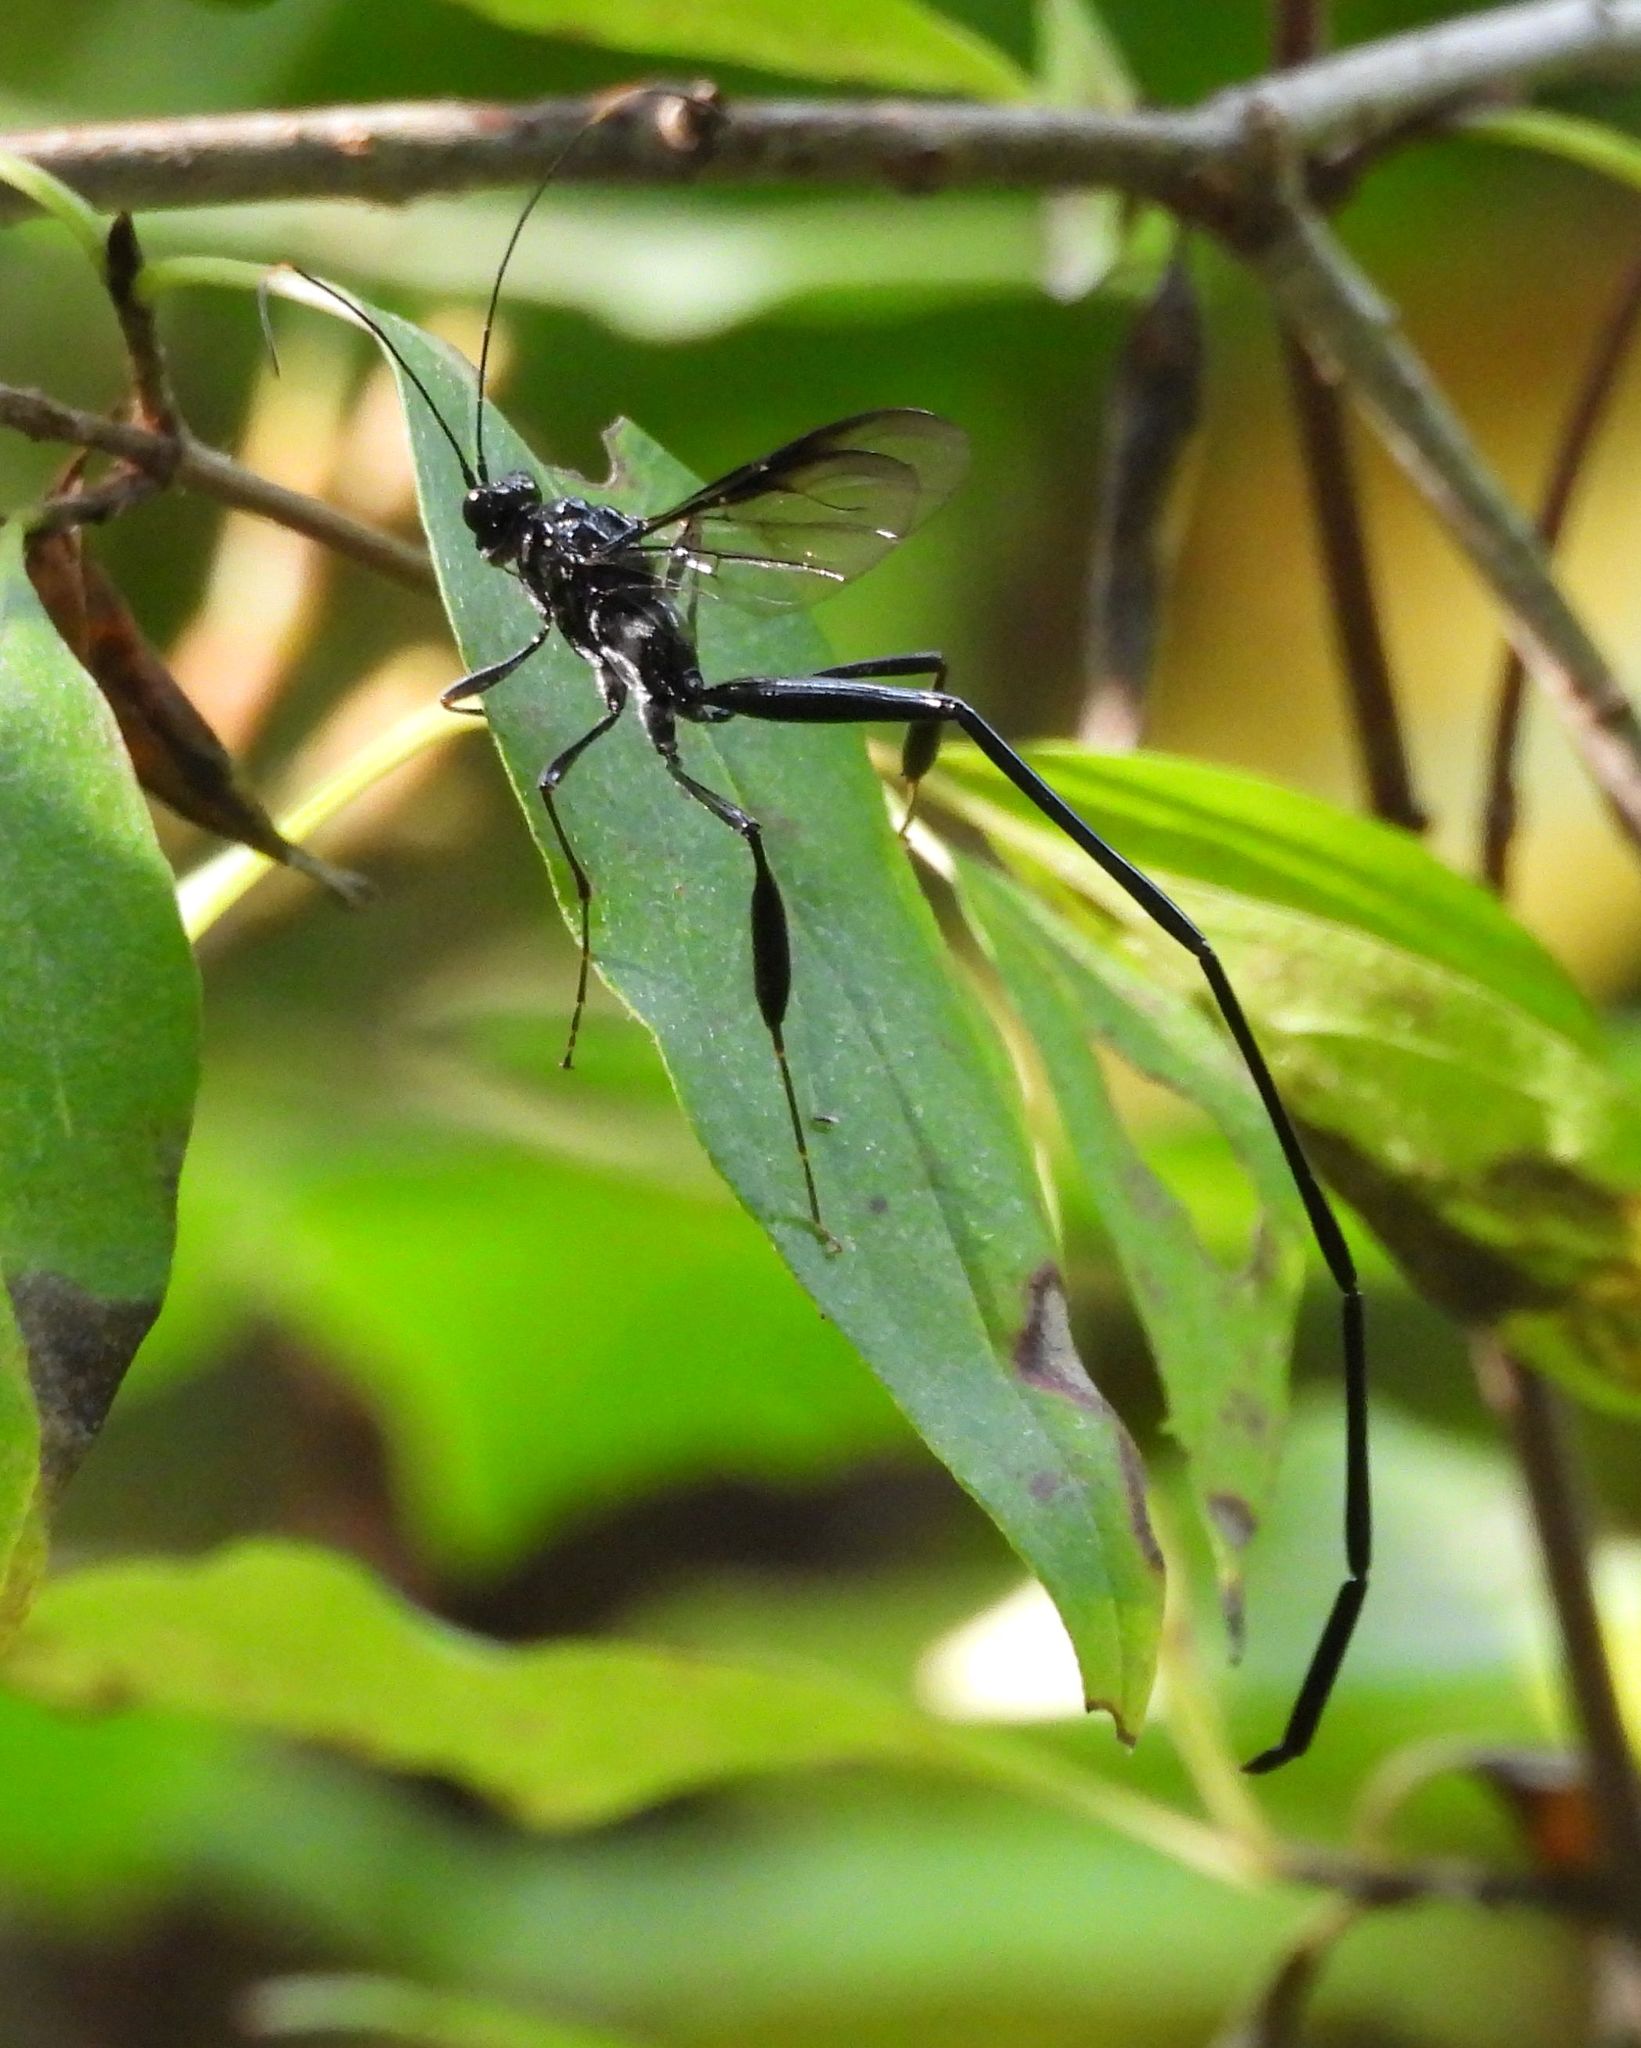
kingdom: Animalia
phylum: Arthropoda
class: Insecta
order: Hymenoptera
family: Pelecinidae
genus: Pelecinus
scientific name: Pelecinus polyturator
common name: American pelecinid wasp
